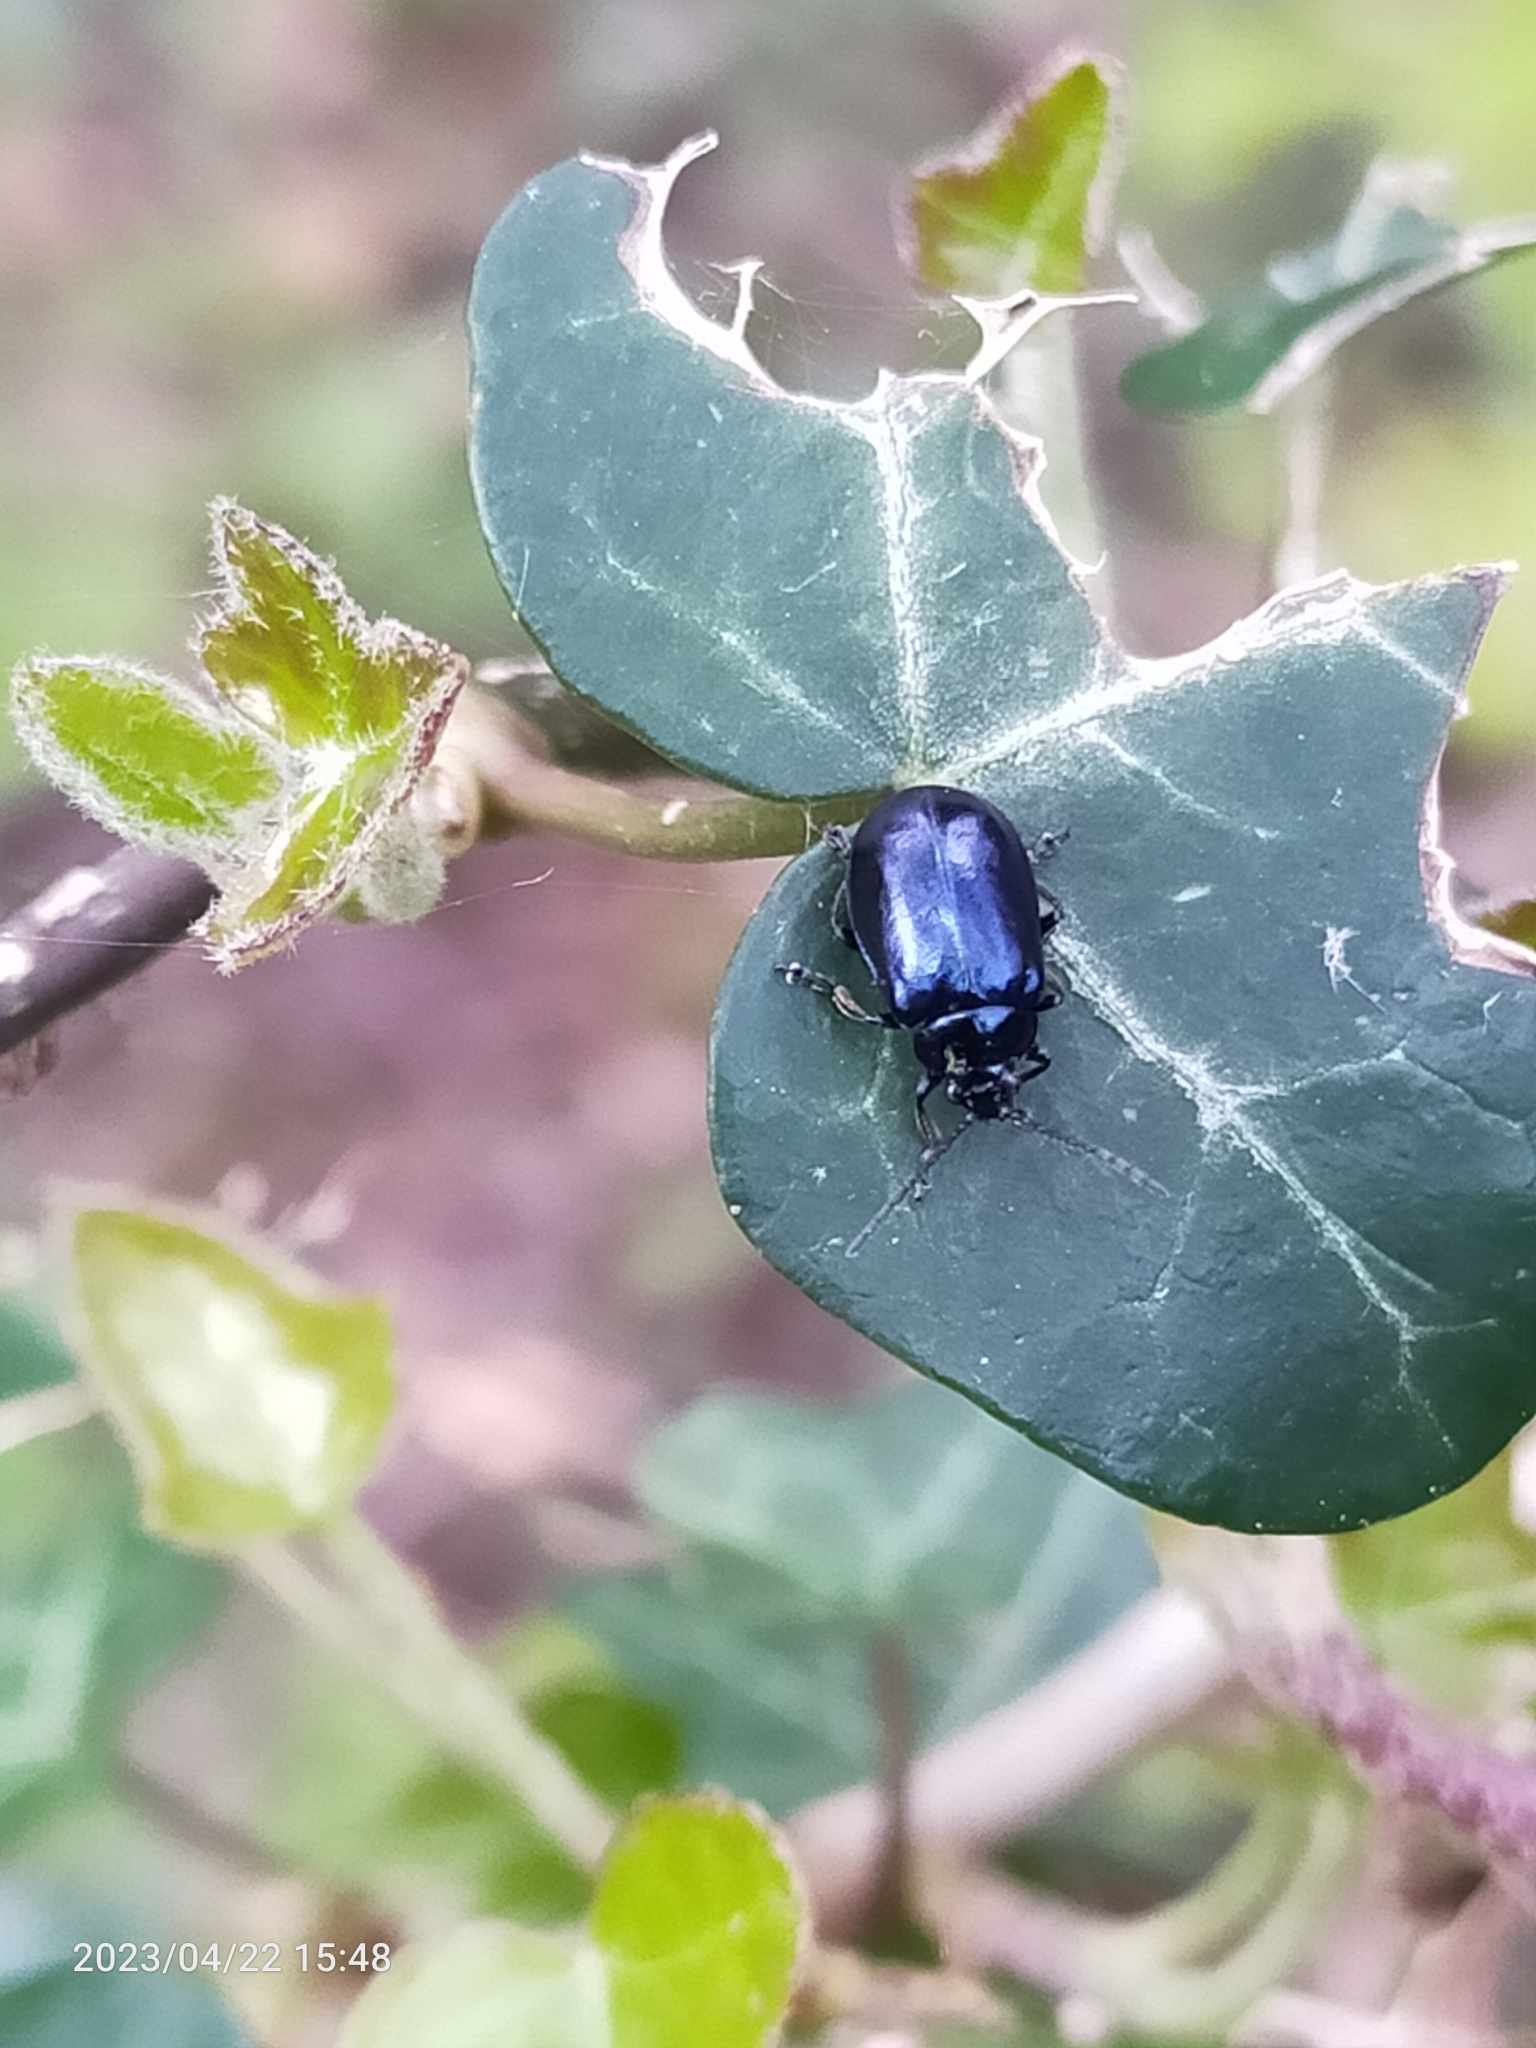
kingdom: Animalia
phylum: Arthropoda
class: Insecta
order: Coleoptera
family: Chrysomelidae
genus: Agelastica
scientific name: Agelastica alni
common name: Alder leaf beetle
